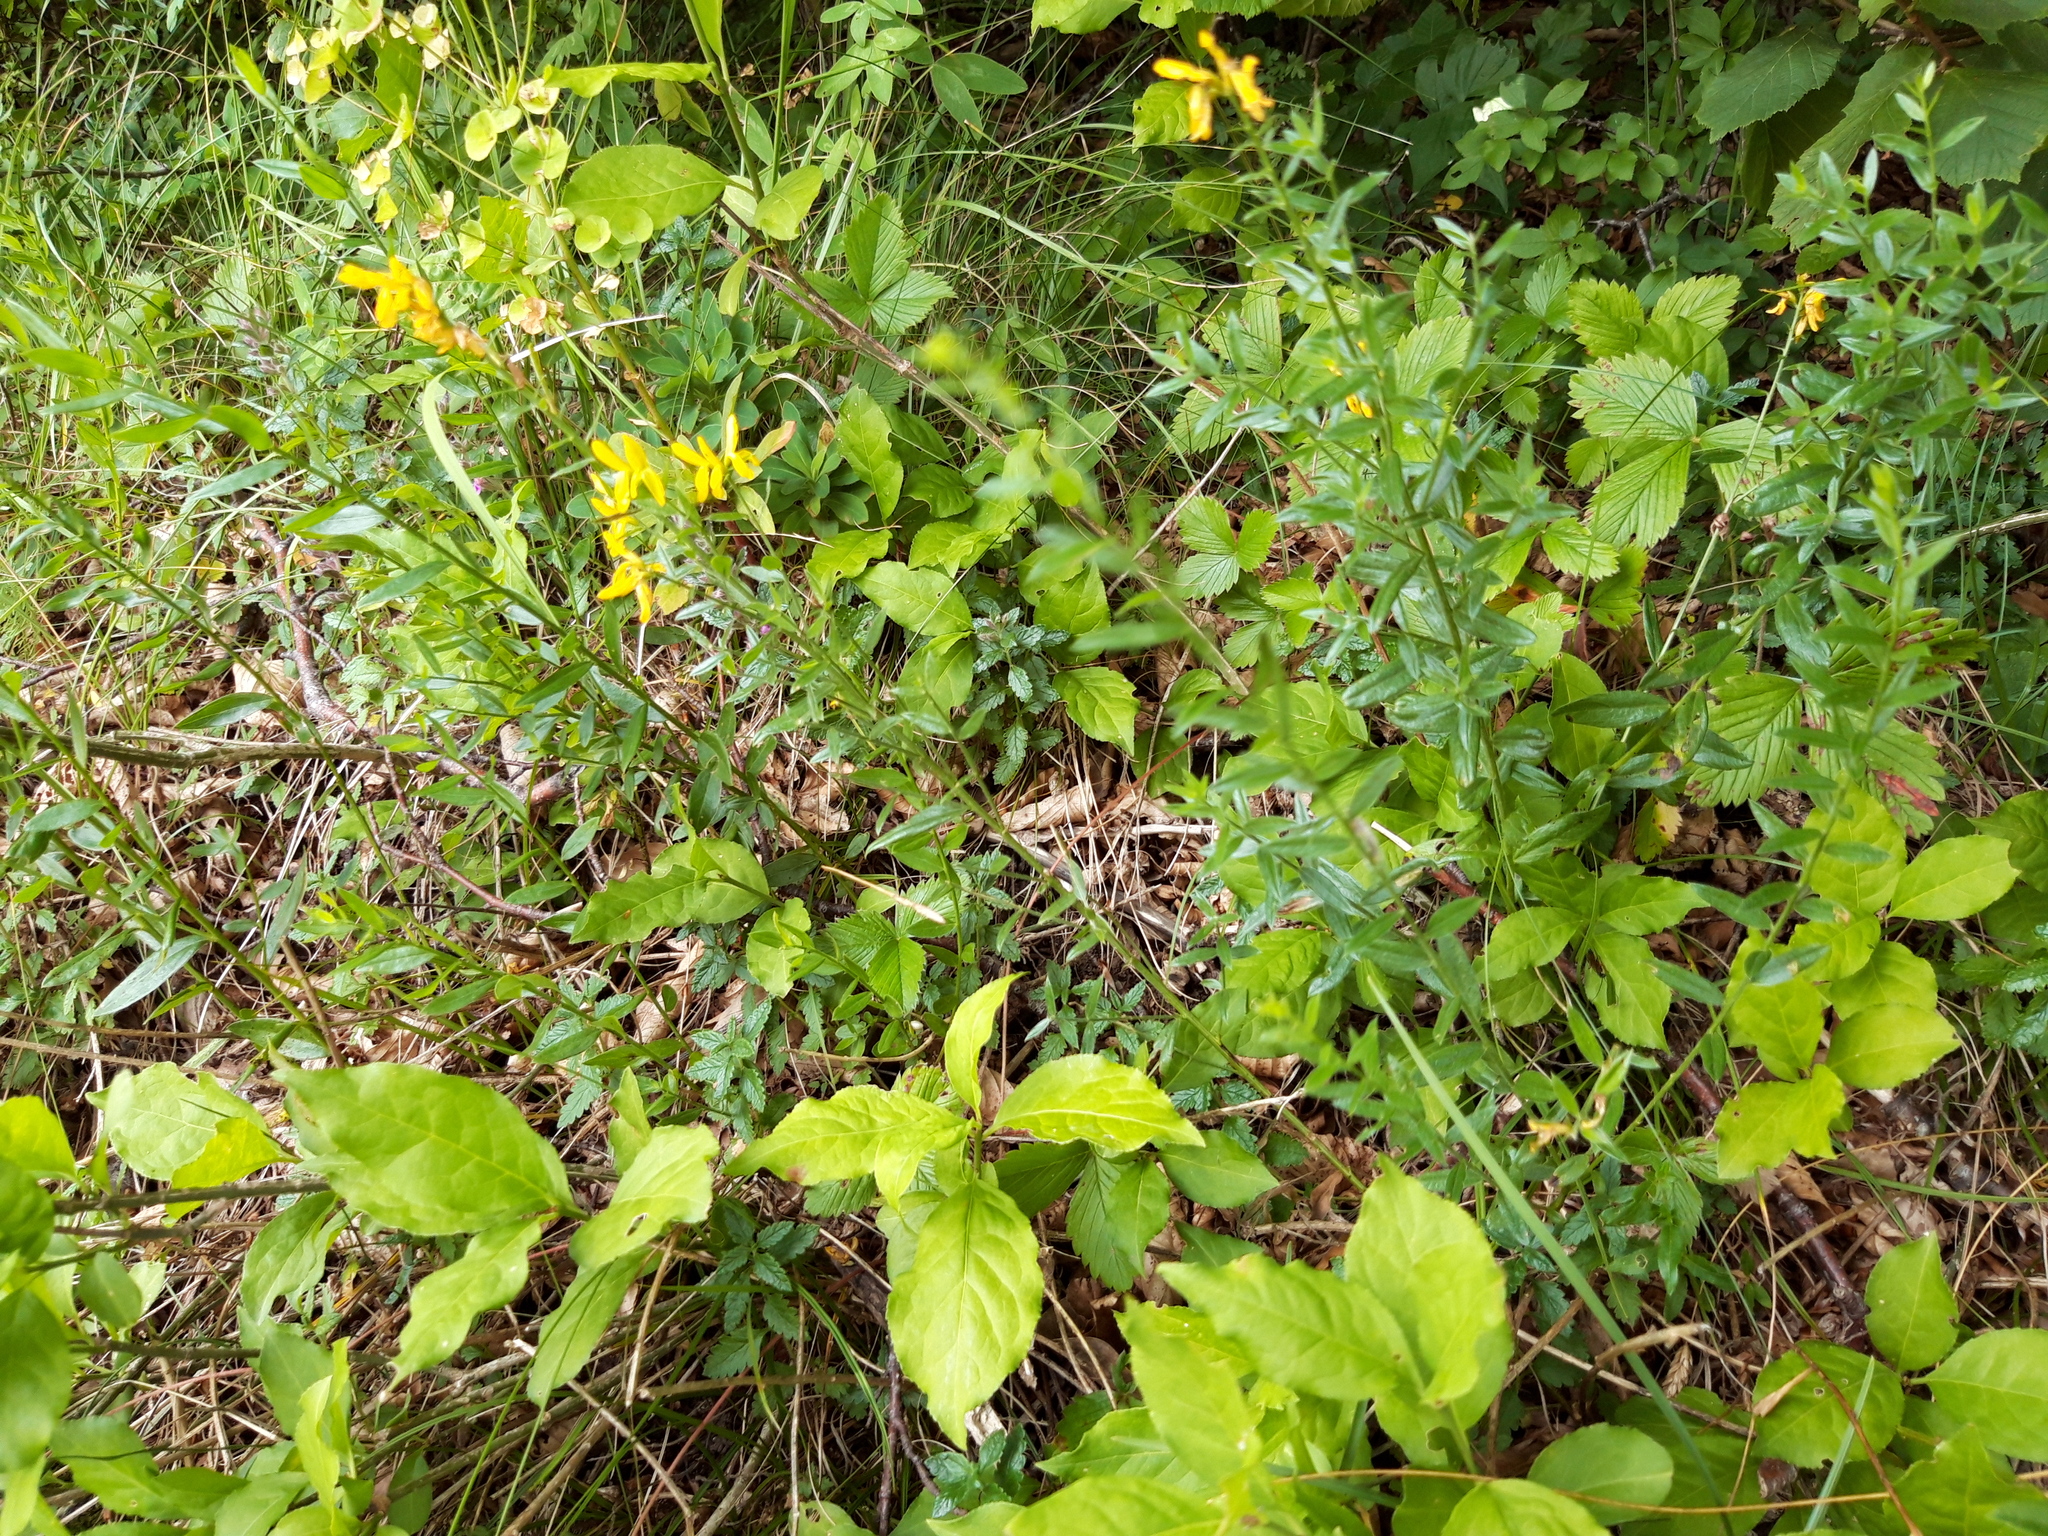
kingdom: Plantae
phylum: Tracheophyta
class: Magnoliopsida
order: Fabales
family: Fabaceae
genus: Genista
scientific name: Genista tinctoria
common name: Dyer's greenweed
